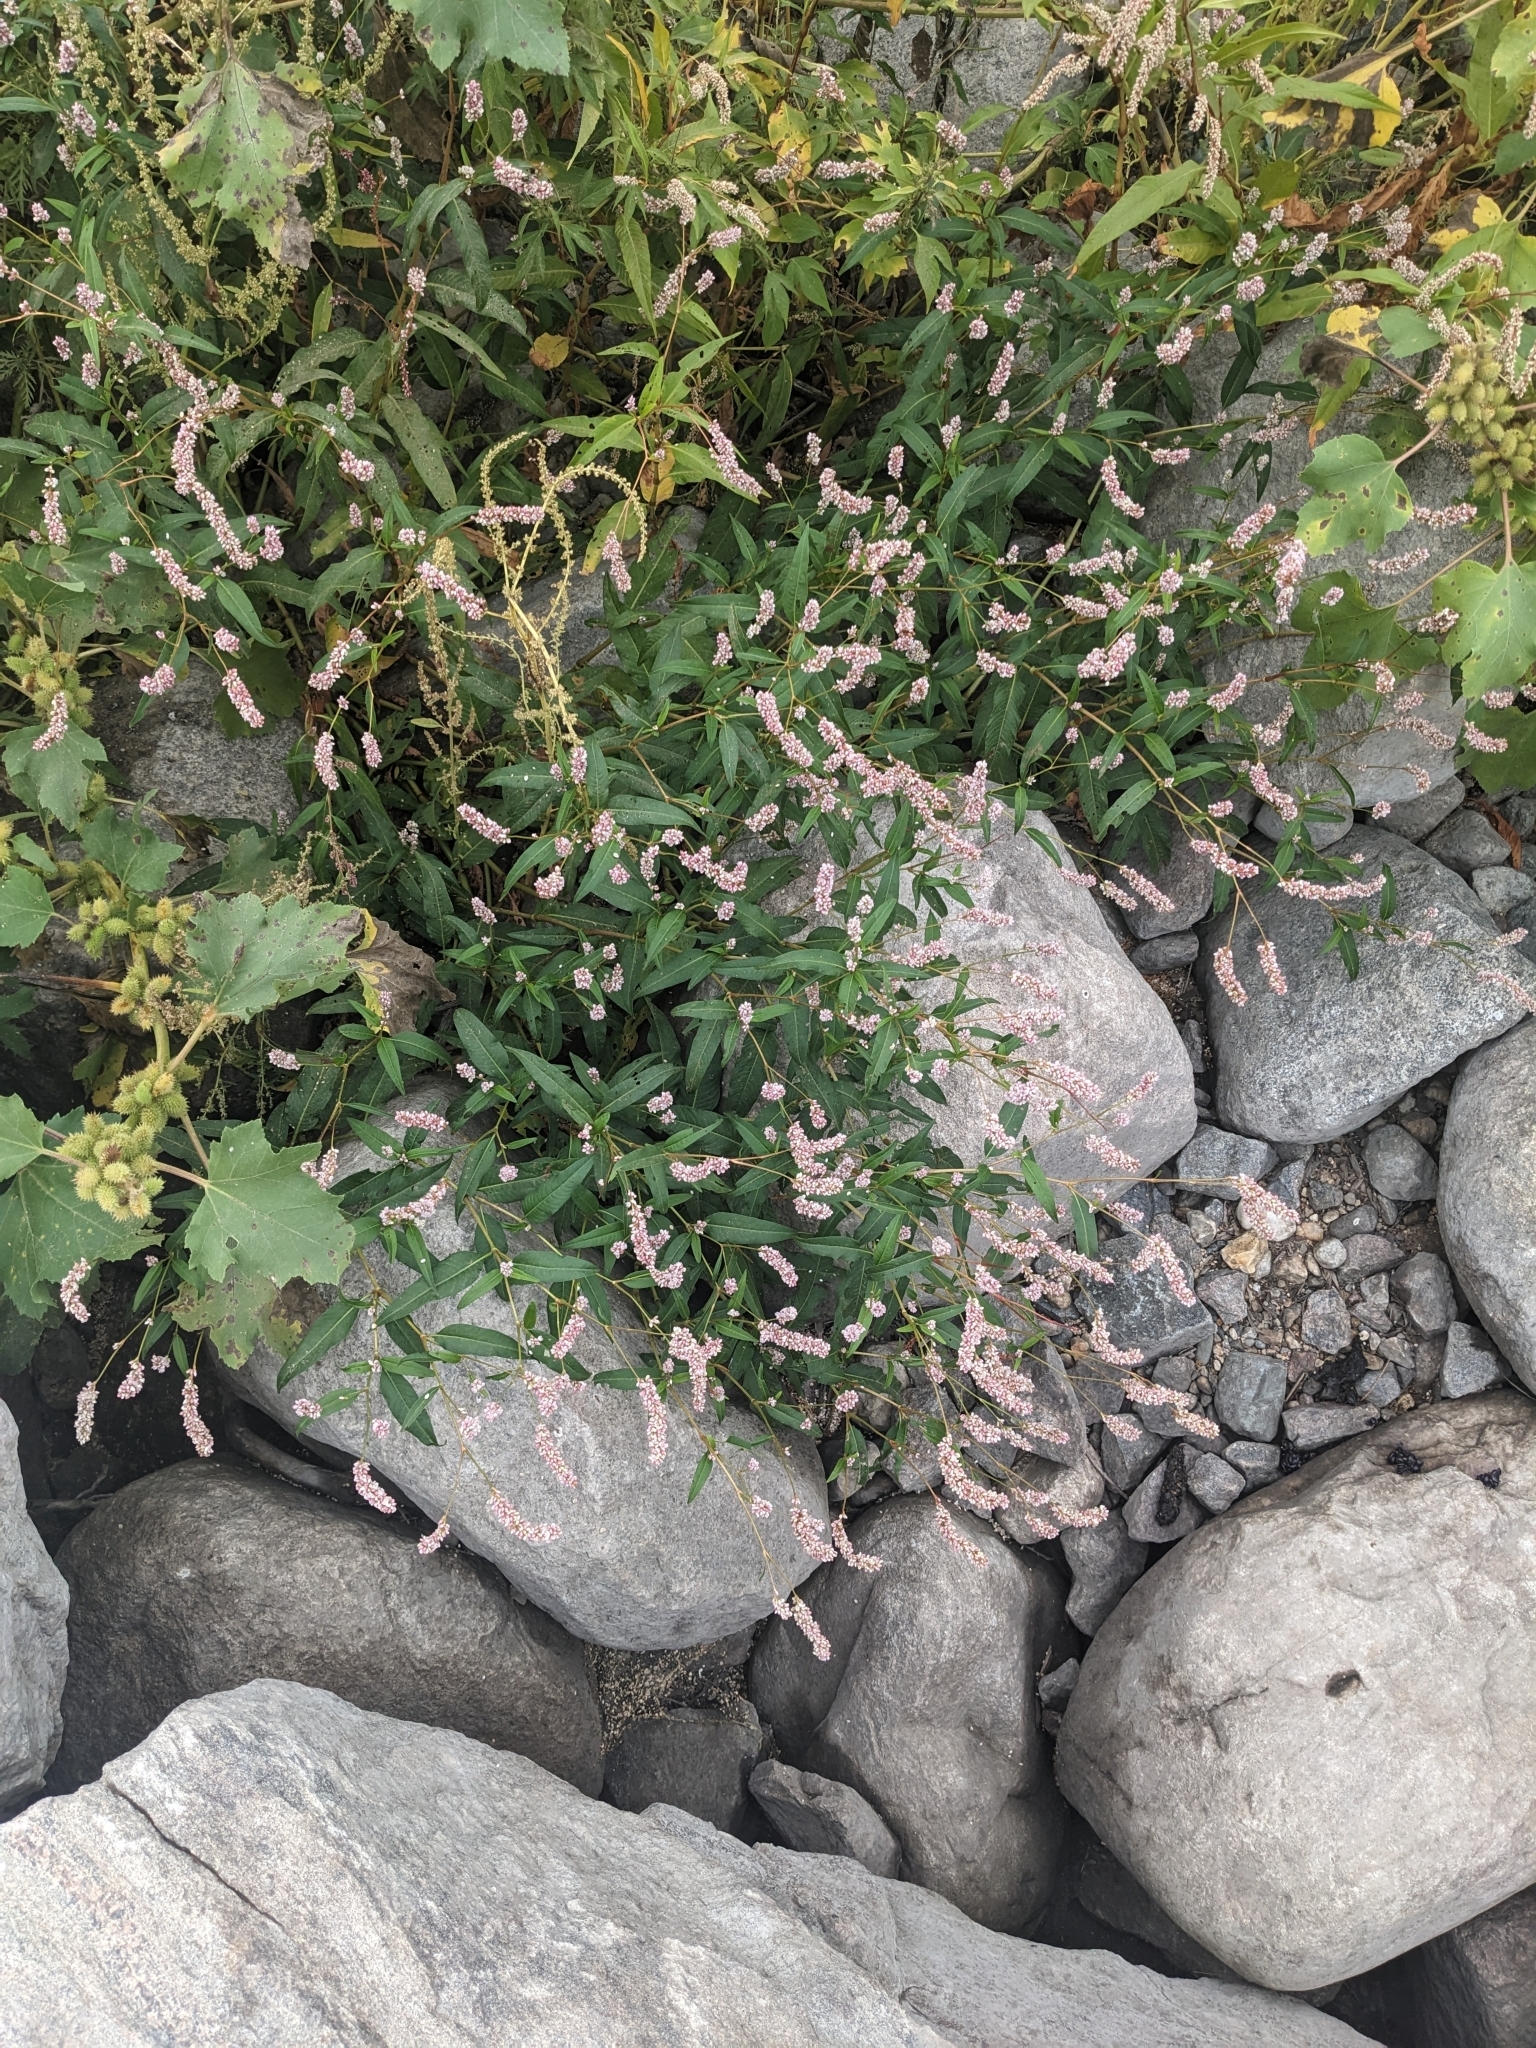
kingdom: Plantae
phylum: Tracheophyta
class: Magnoliopsida
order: Caryophyllales
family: Polygonaceae
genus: Persicaria
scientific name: Persicaria hydropiperoides
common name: Swamp smartweed
